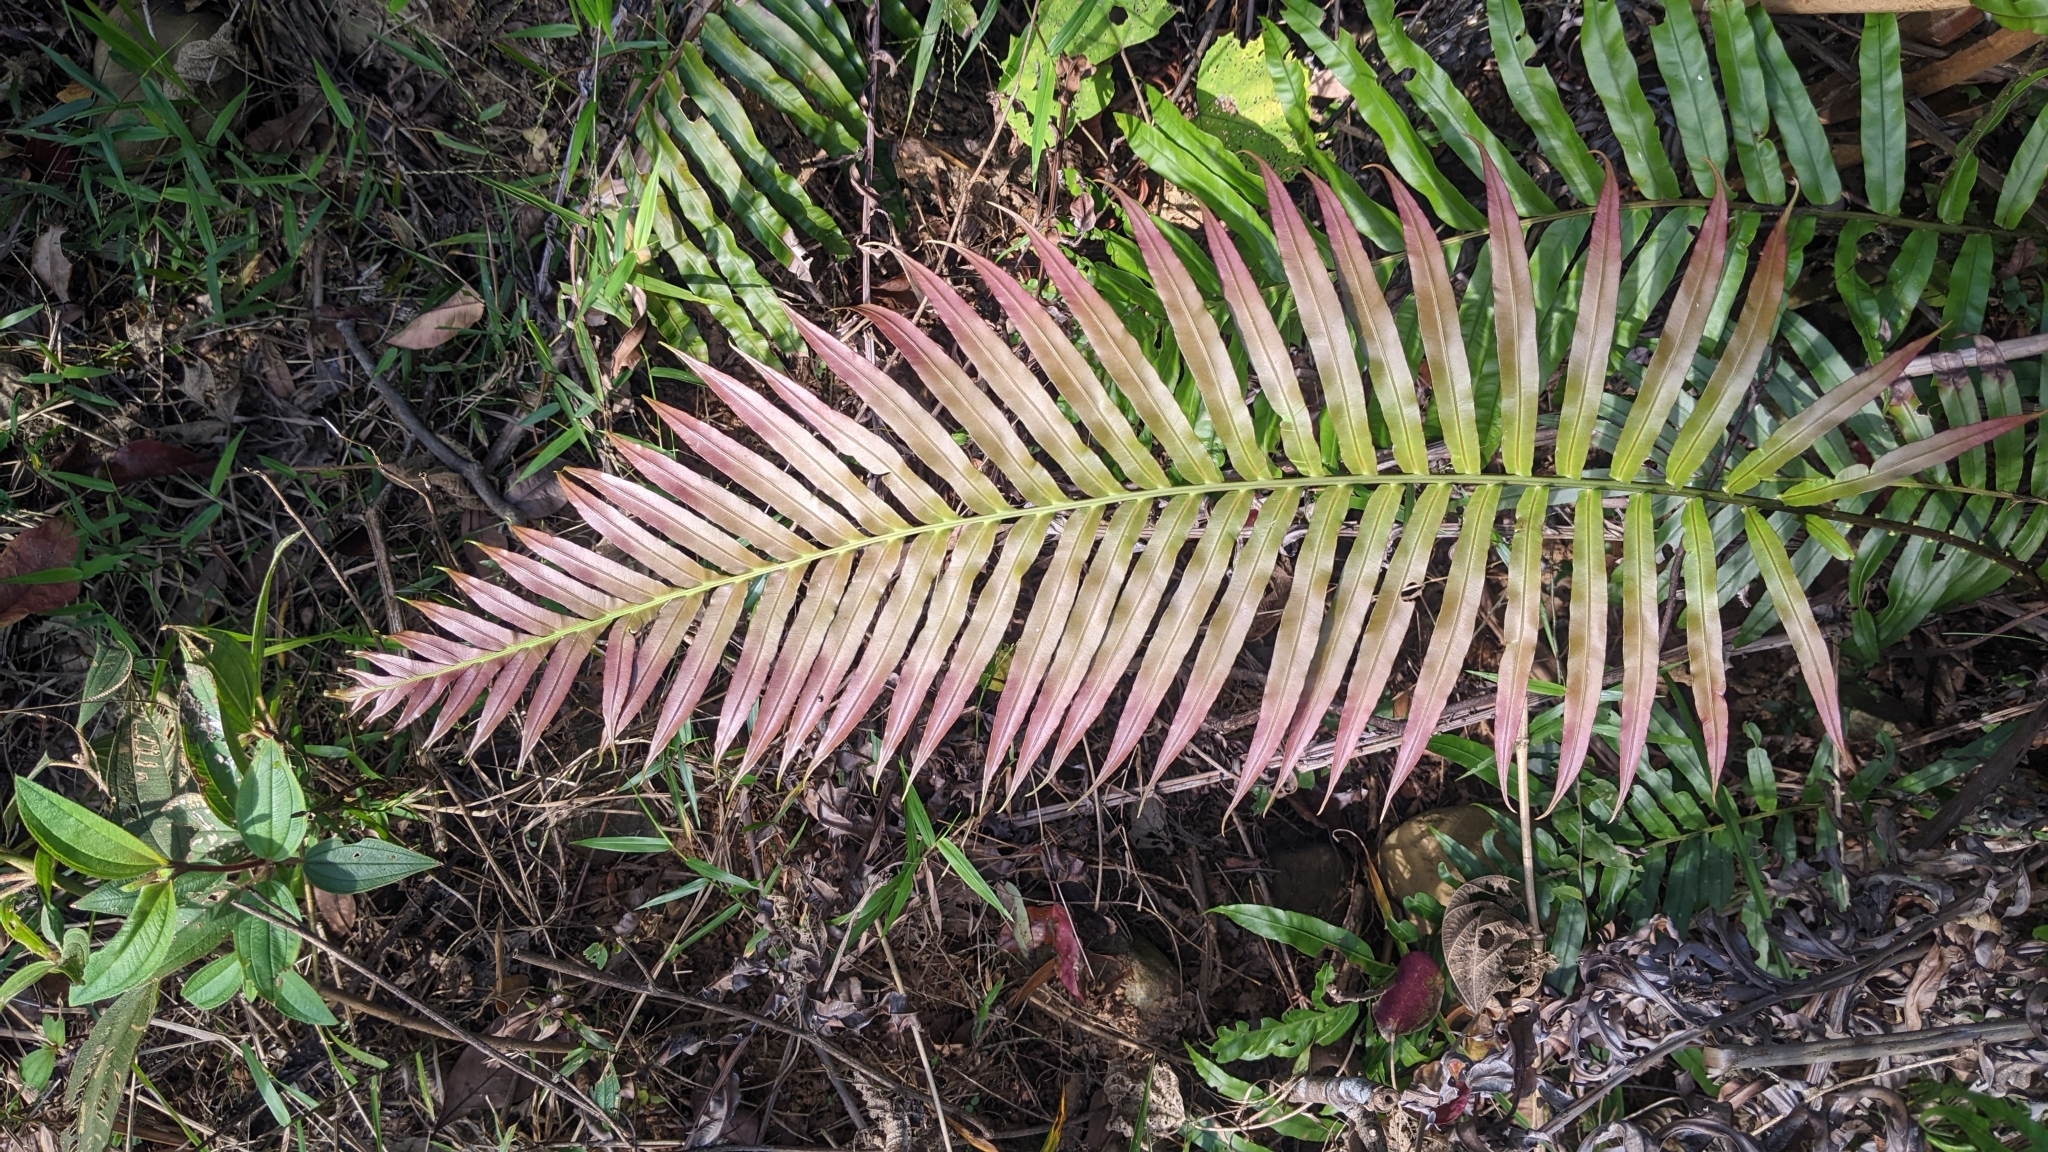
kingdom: Plantae
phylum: Tracheophyta
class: Polypodiopsida
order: Polypodiales
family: Blechnaceae
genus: Blechnopsis
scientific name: Blechnopsis orientalis
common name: Oriental blechnum
